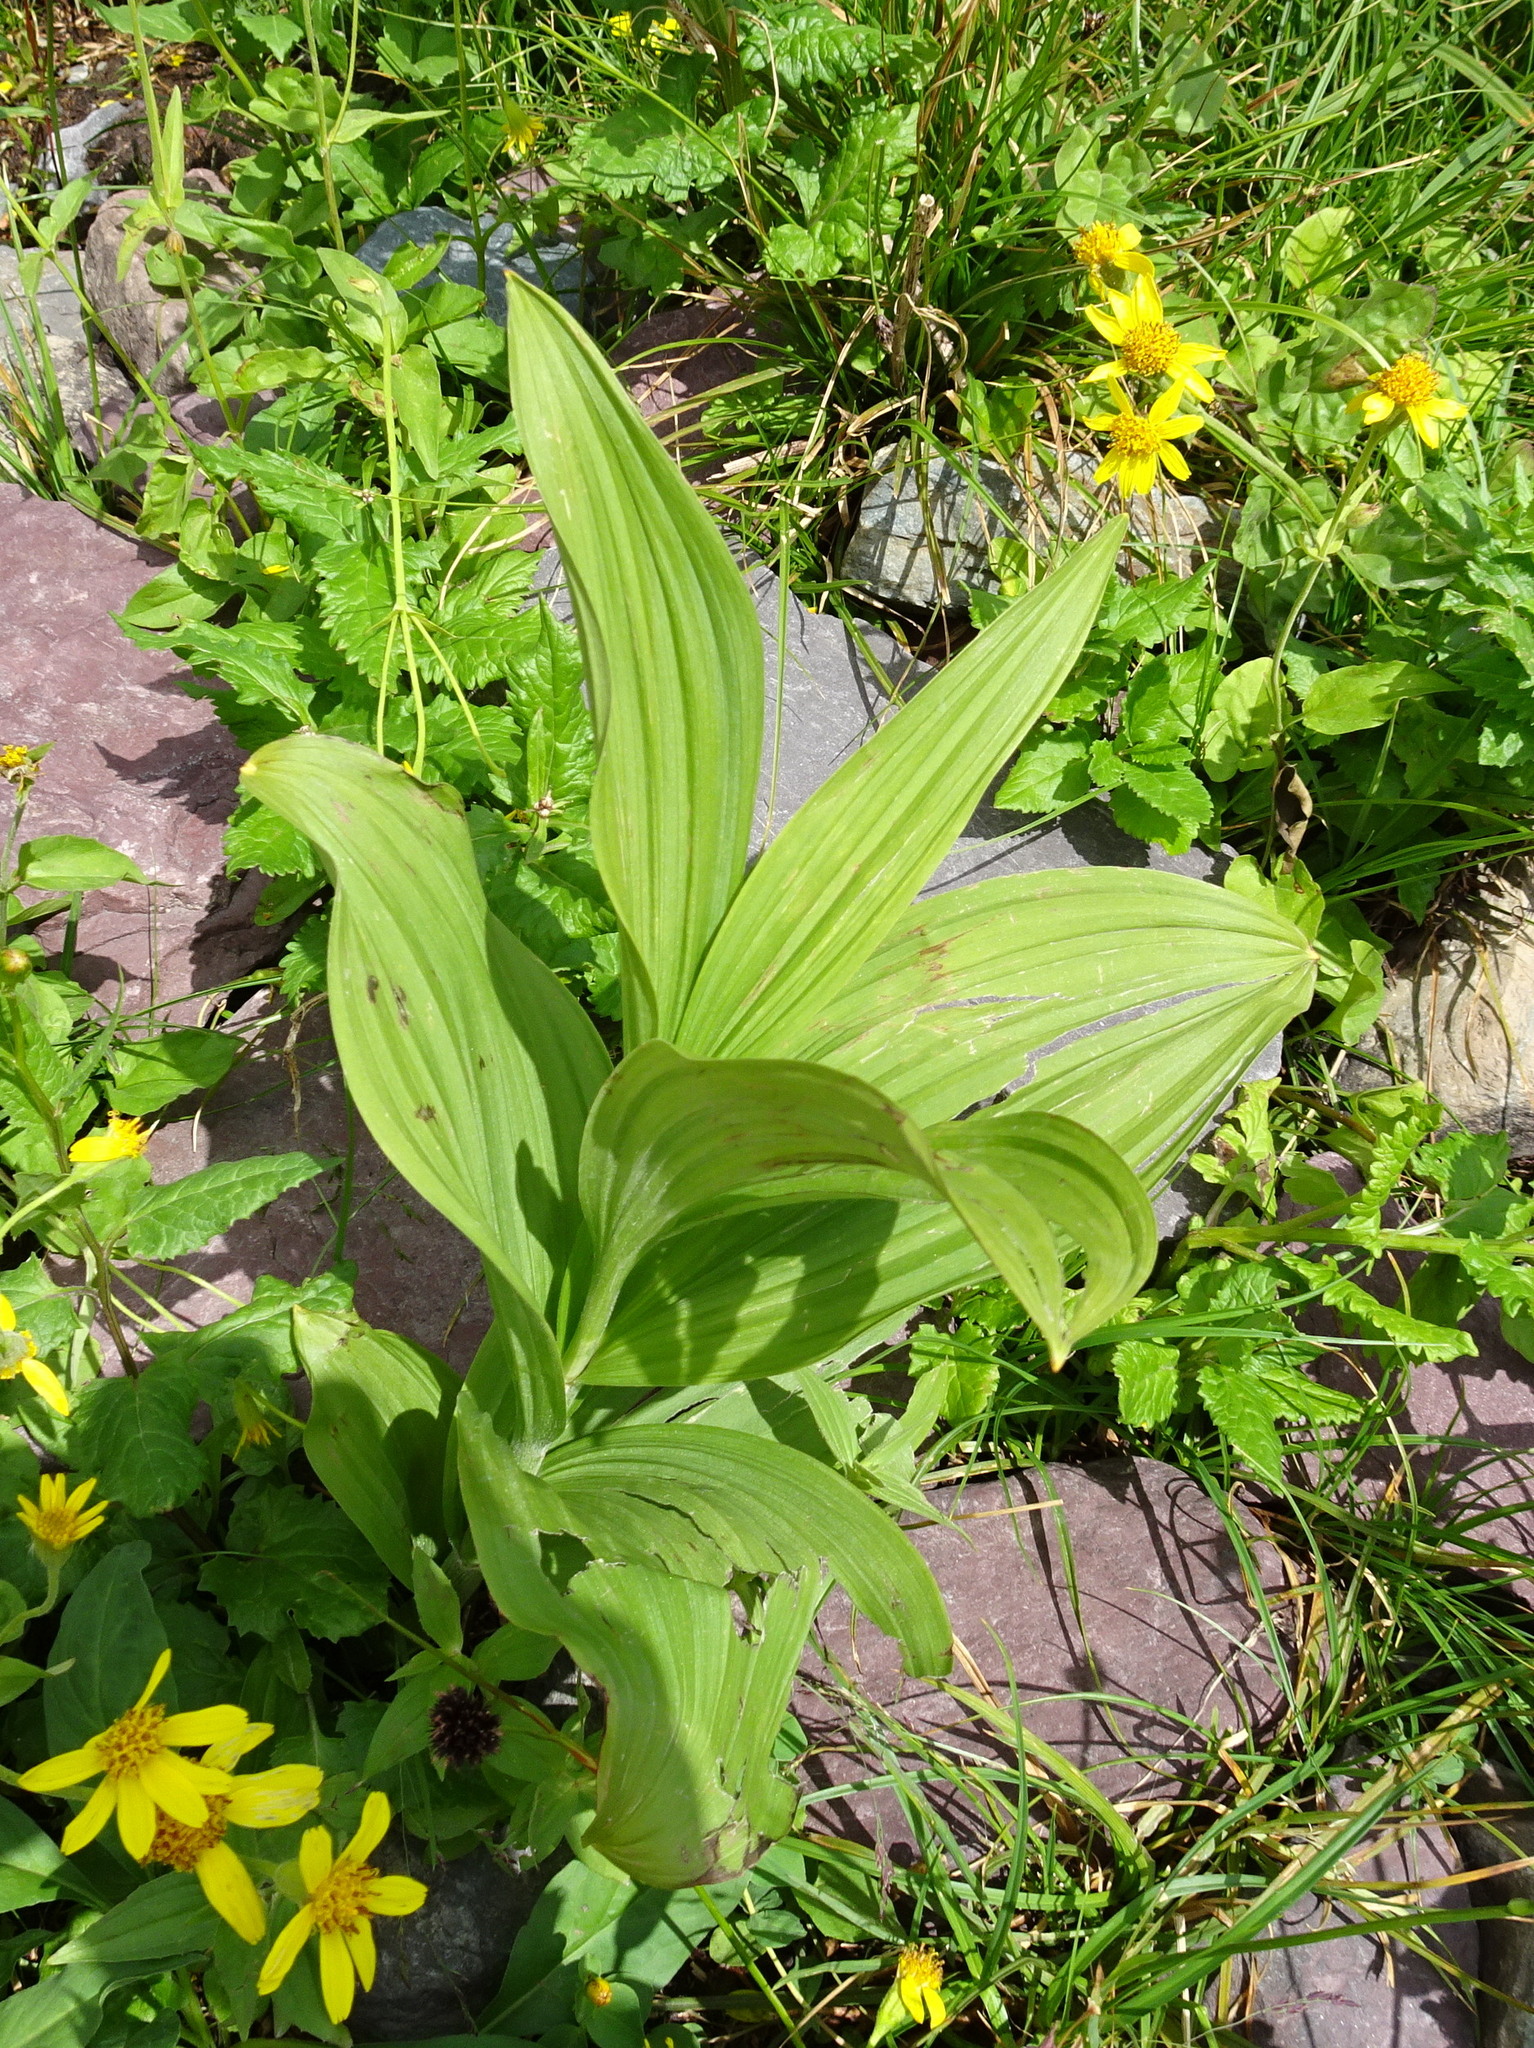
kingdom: Plantae
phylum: Tracheophyta
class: Liliopsida
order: Liliales
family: Melanthiaceae
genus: Veratrum
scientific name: Veratrum viride
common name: American false hellebore
